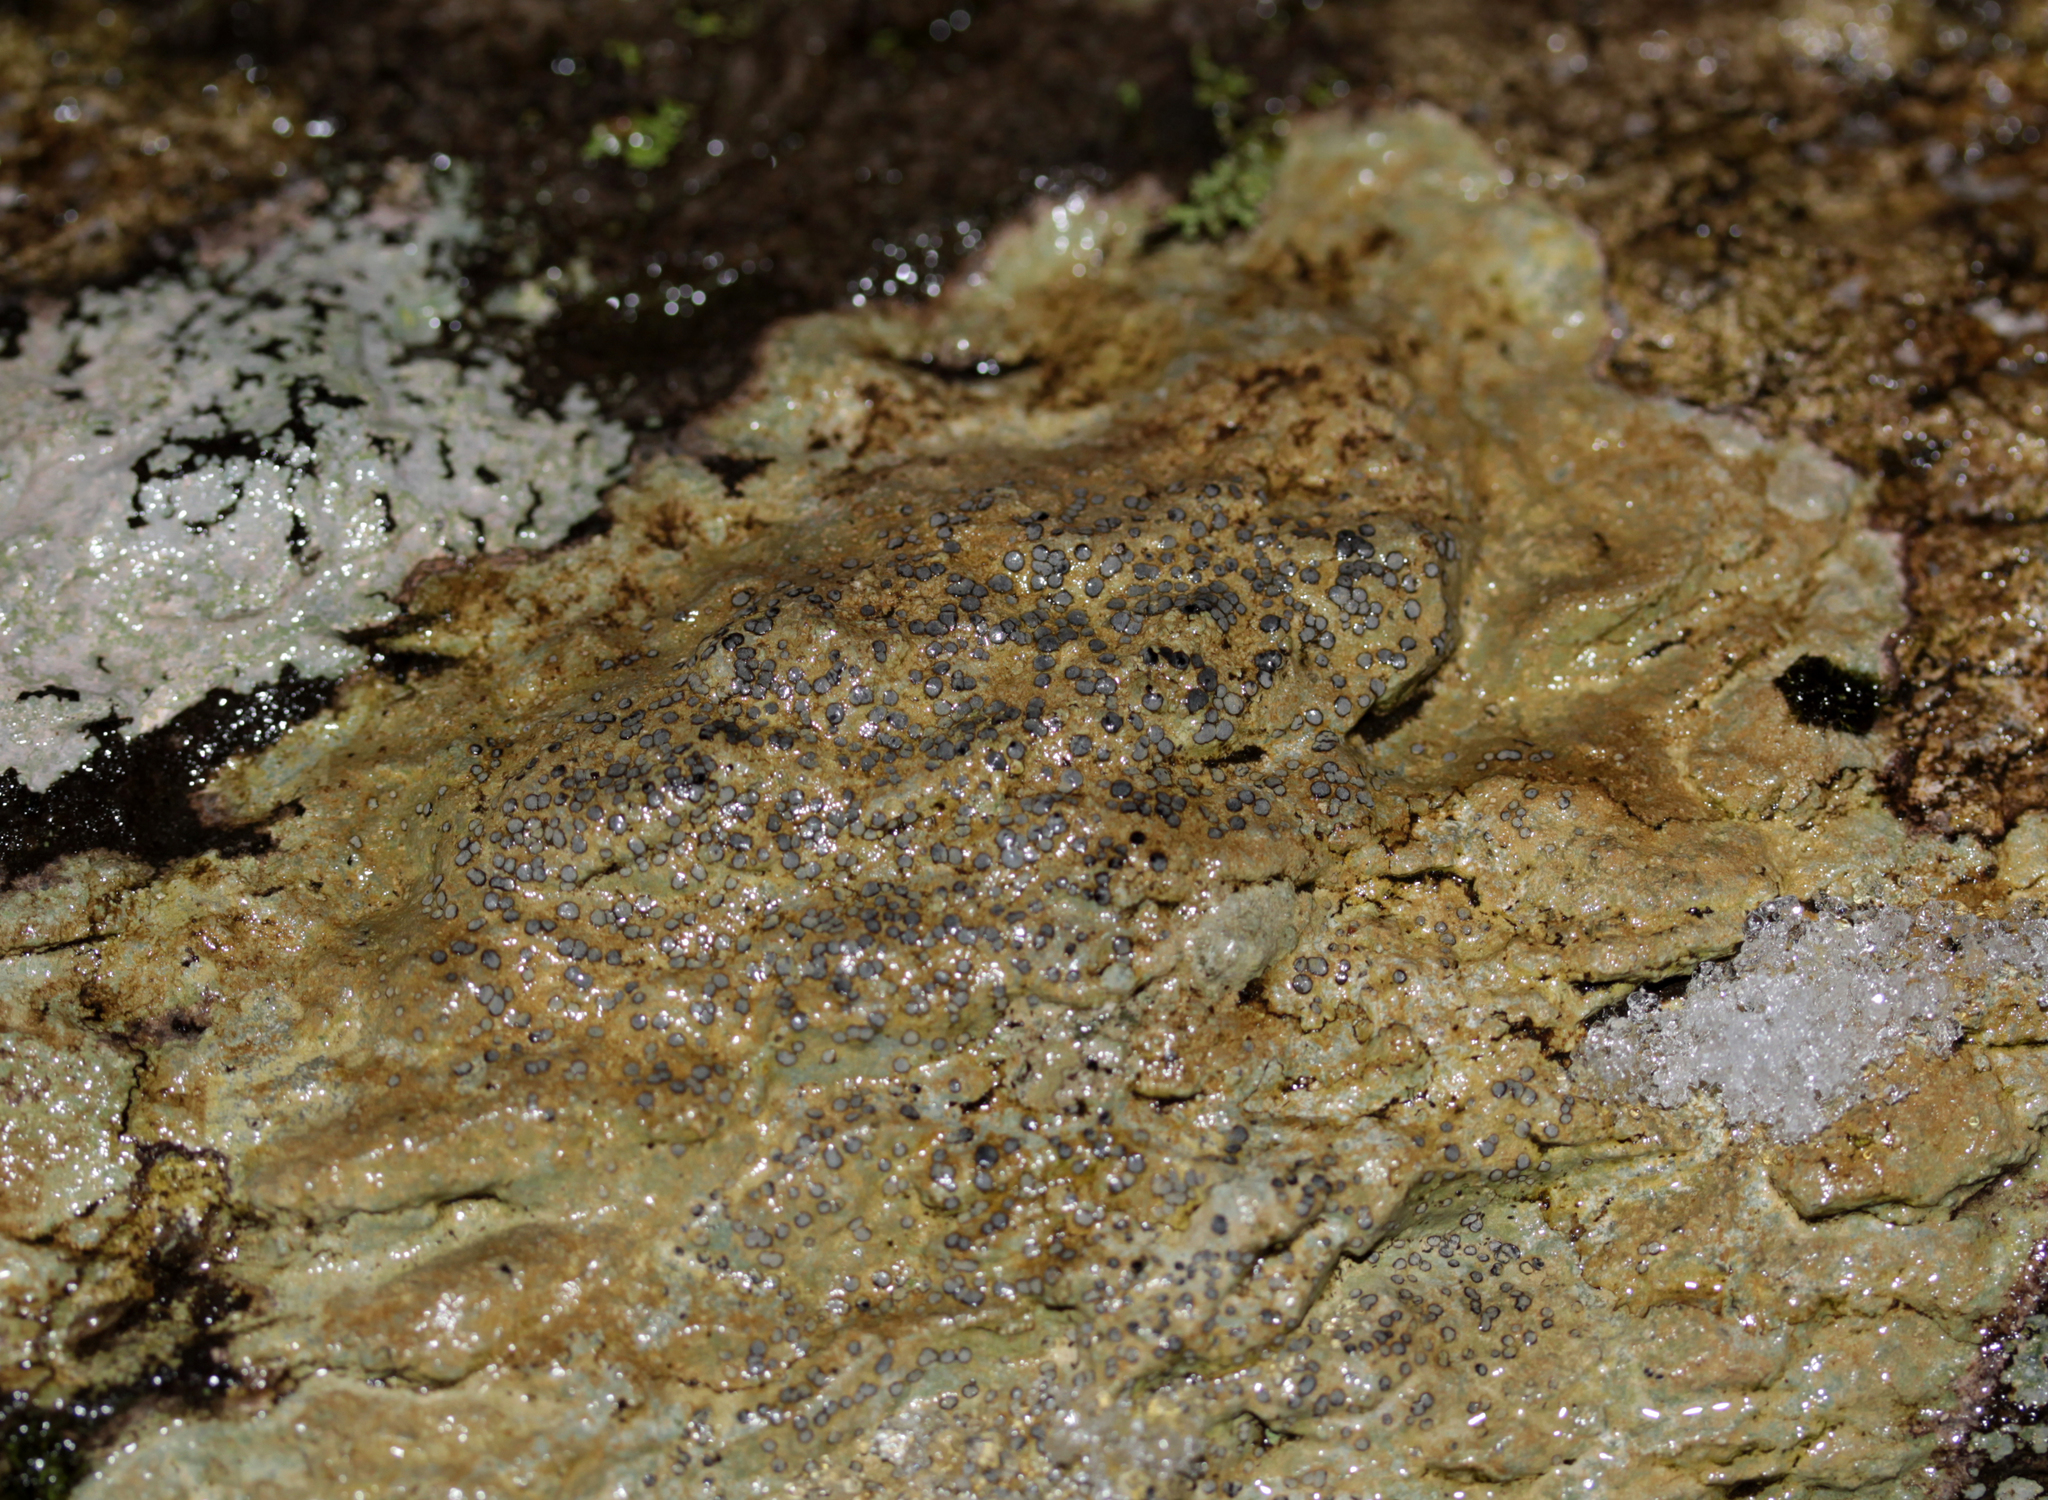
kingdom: Fungi
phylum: Ascomycota
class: Lecanoromycetes
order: Lecideales
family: Lecideaceae
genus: Porpidia
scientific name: Porpidia albocaerulescens
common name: Smokey-eyed boulder lichen
